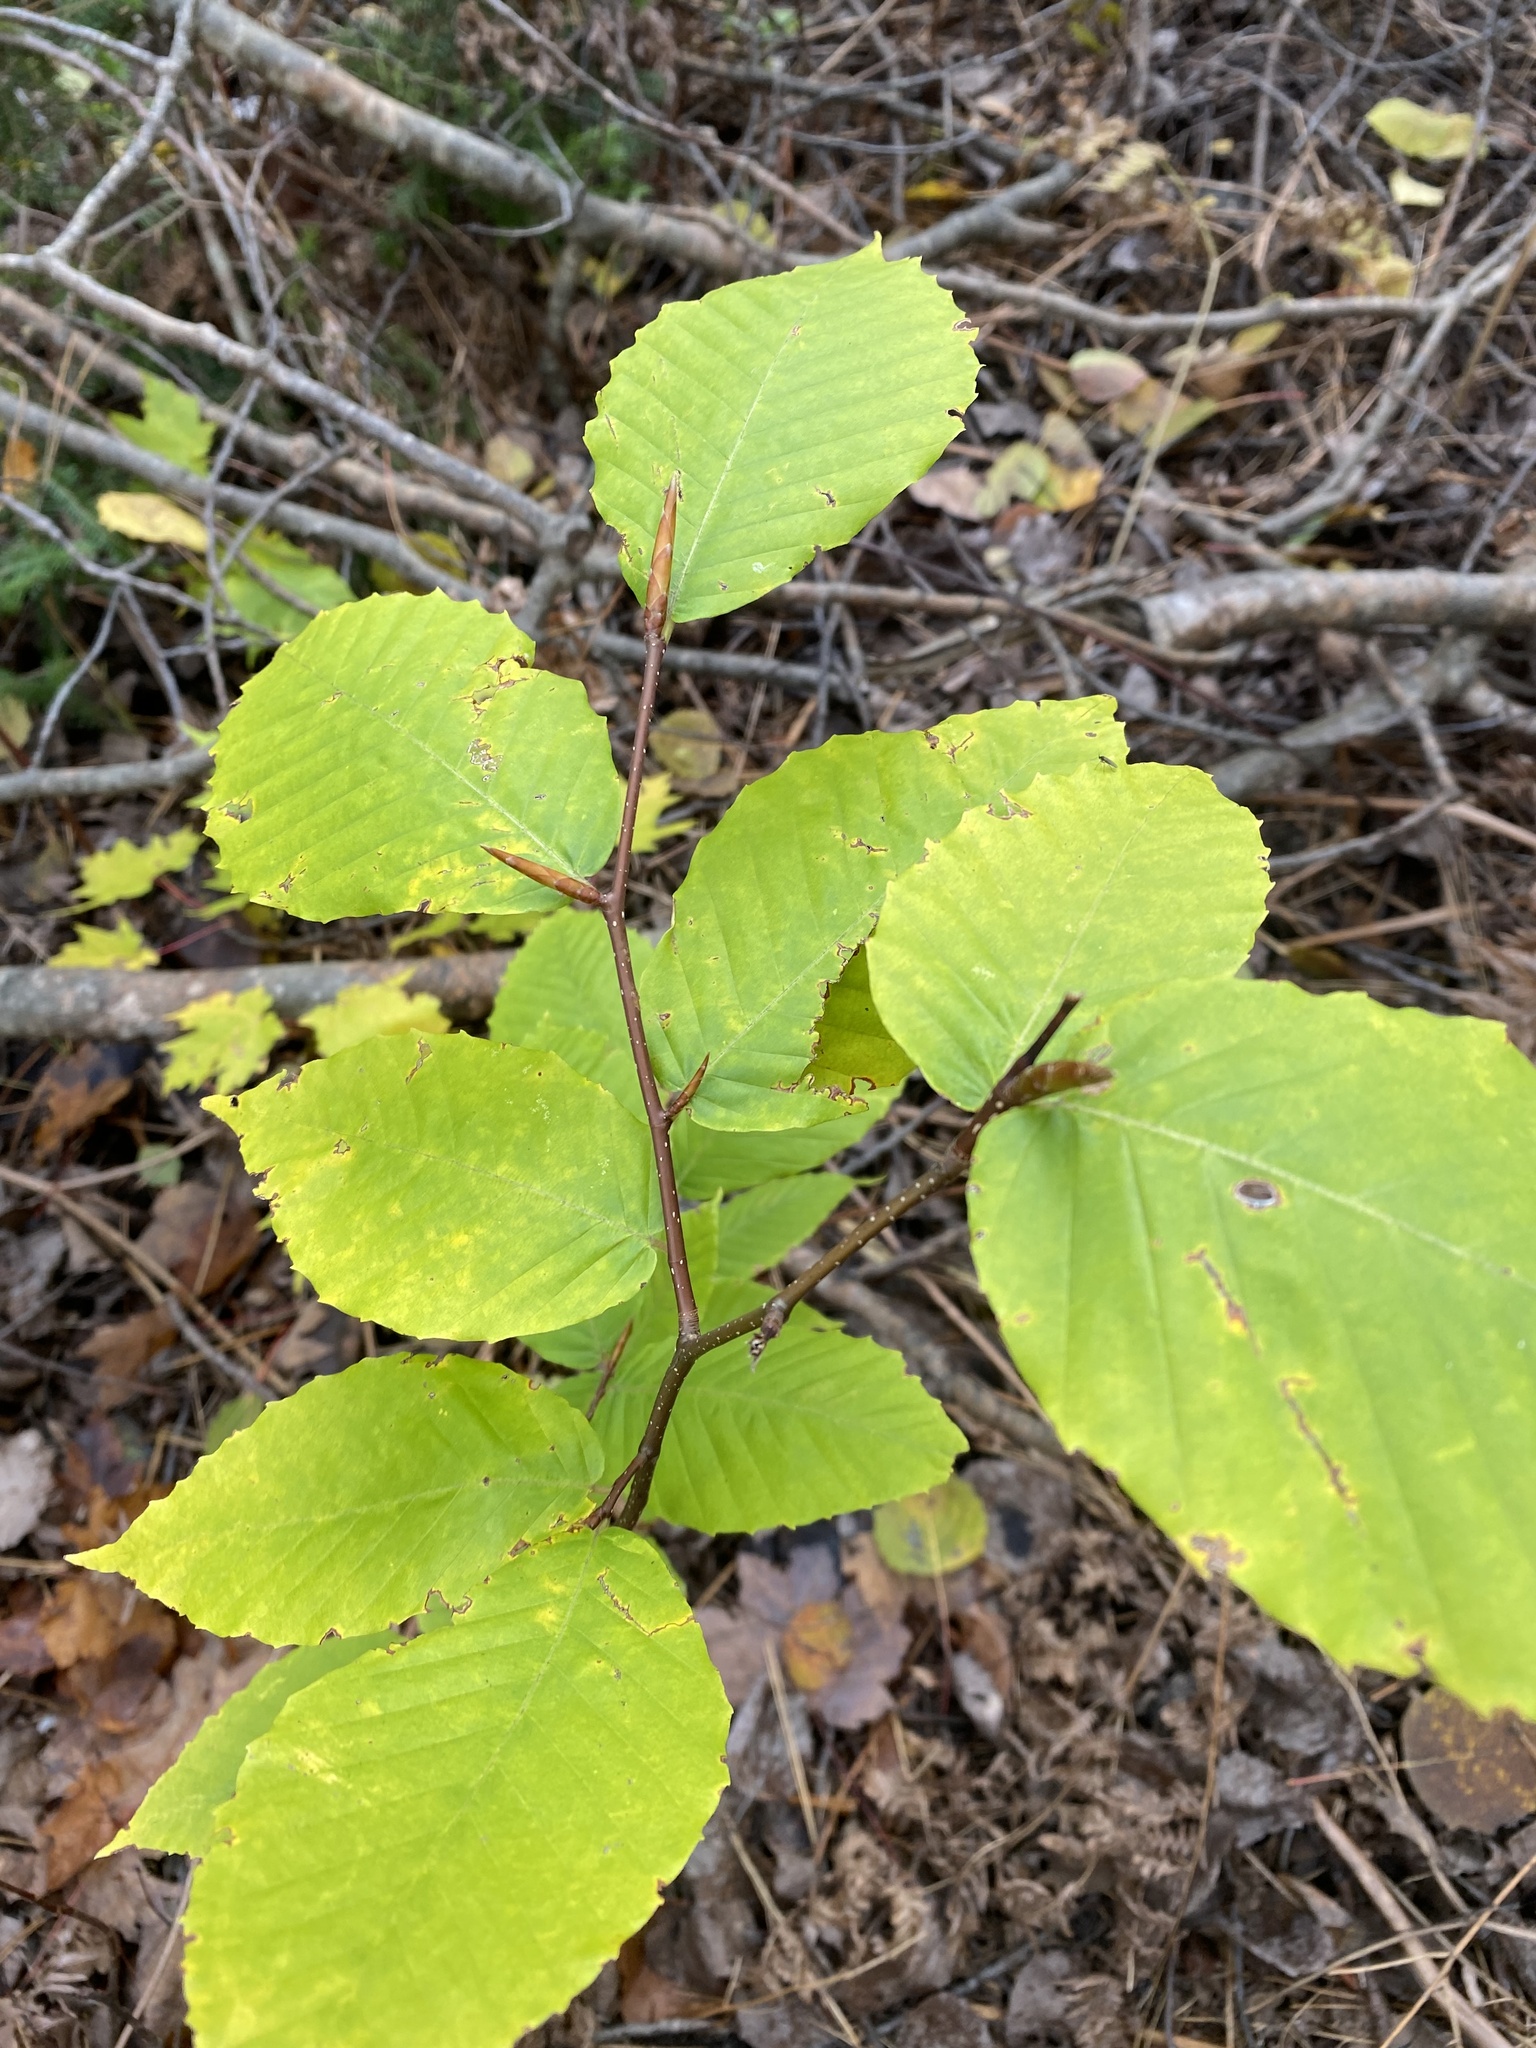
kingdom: Plantae
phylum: Tracheophyta
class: Magnoliopsida
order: Fagales
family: Fagaceae
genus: Fagus
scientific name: Fagus grandifolia
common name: American beech
